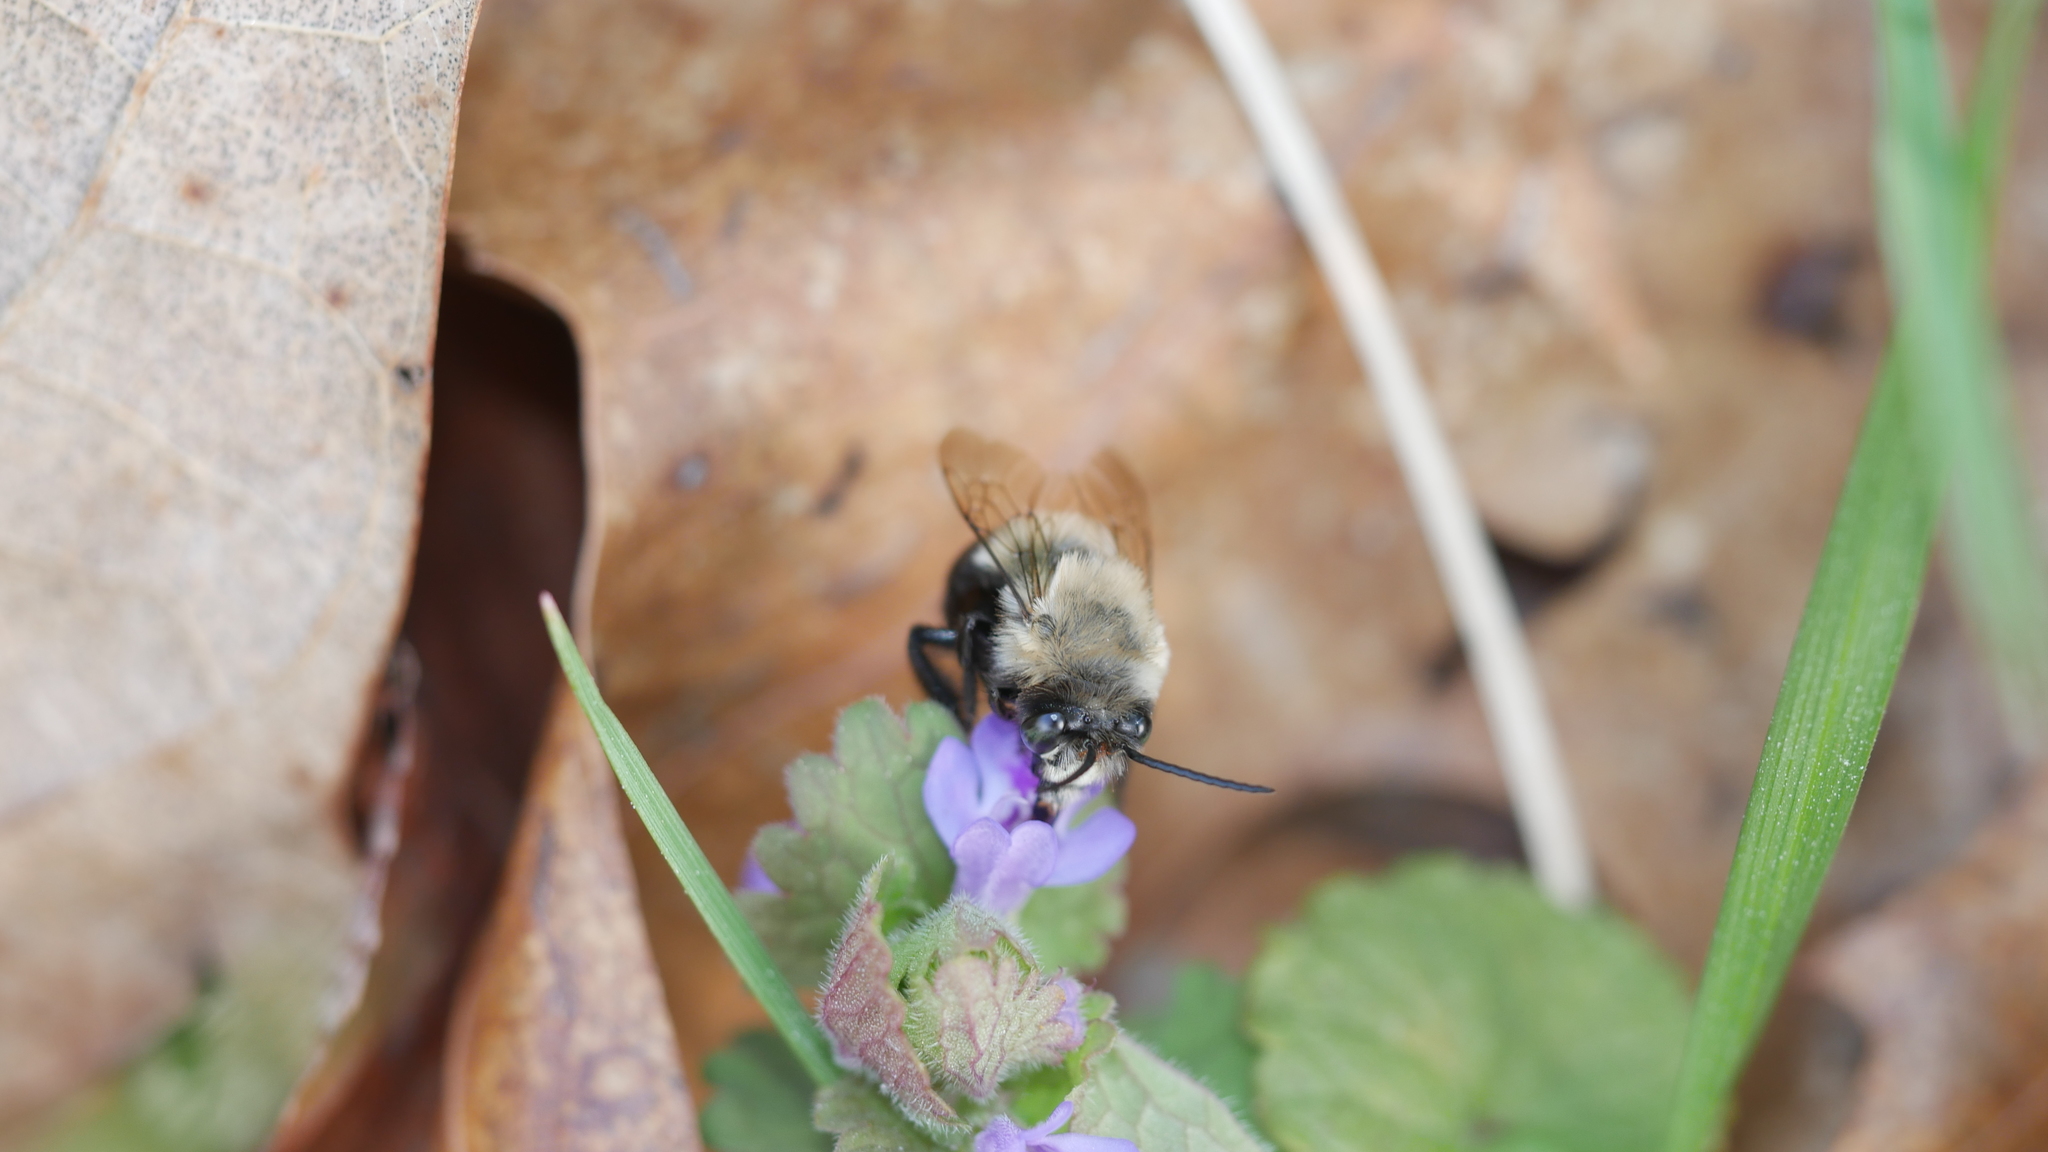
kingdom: Animalia
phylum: Arthropoda
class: Insecta
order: Hymenoptera
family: Apidae
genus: Habropoda
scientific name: Habropoda laboriosa
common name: Southeastern blueberry bee
